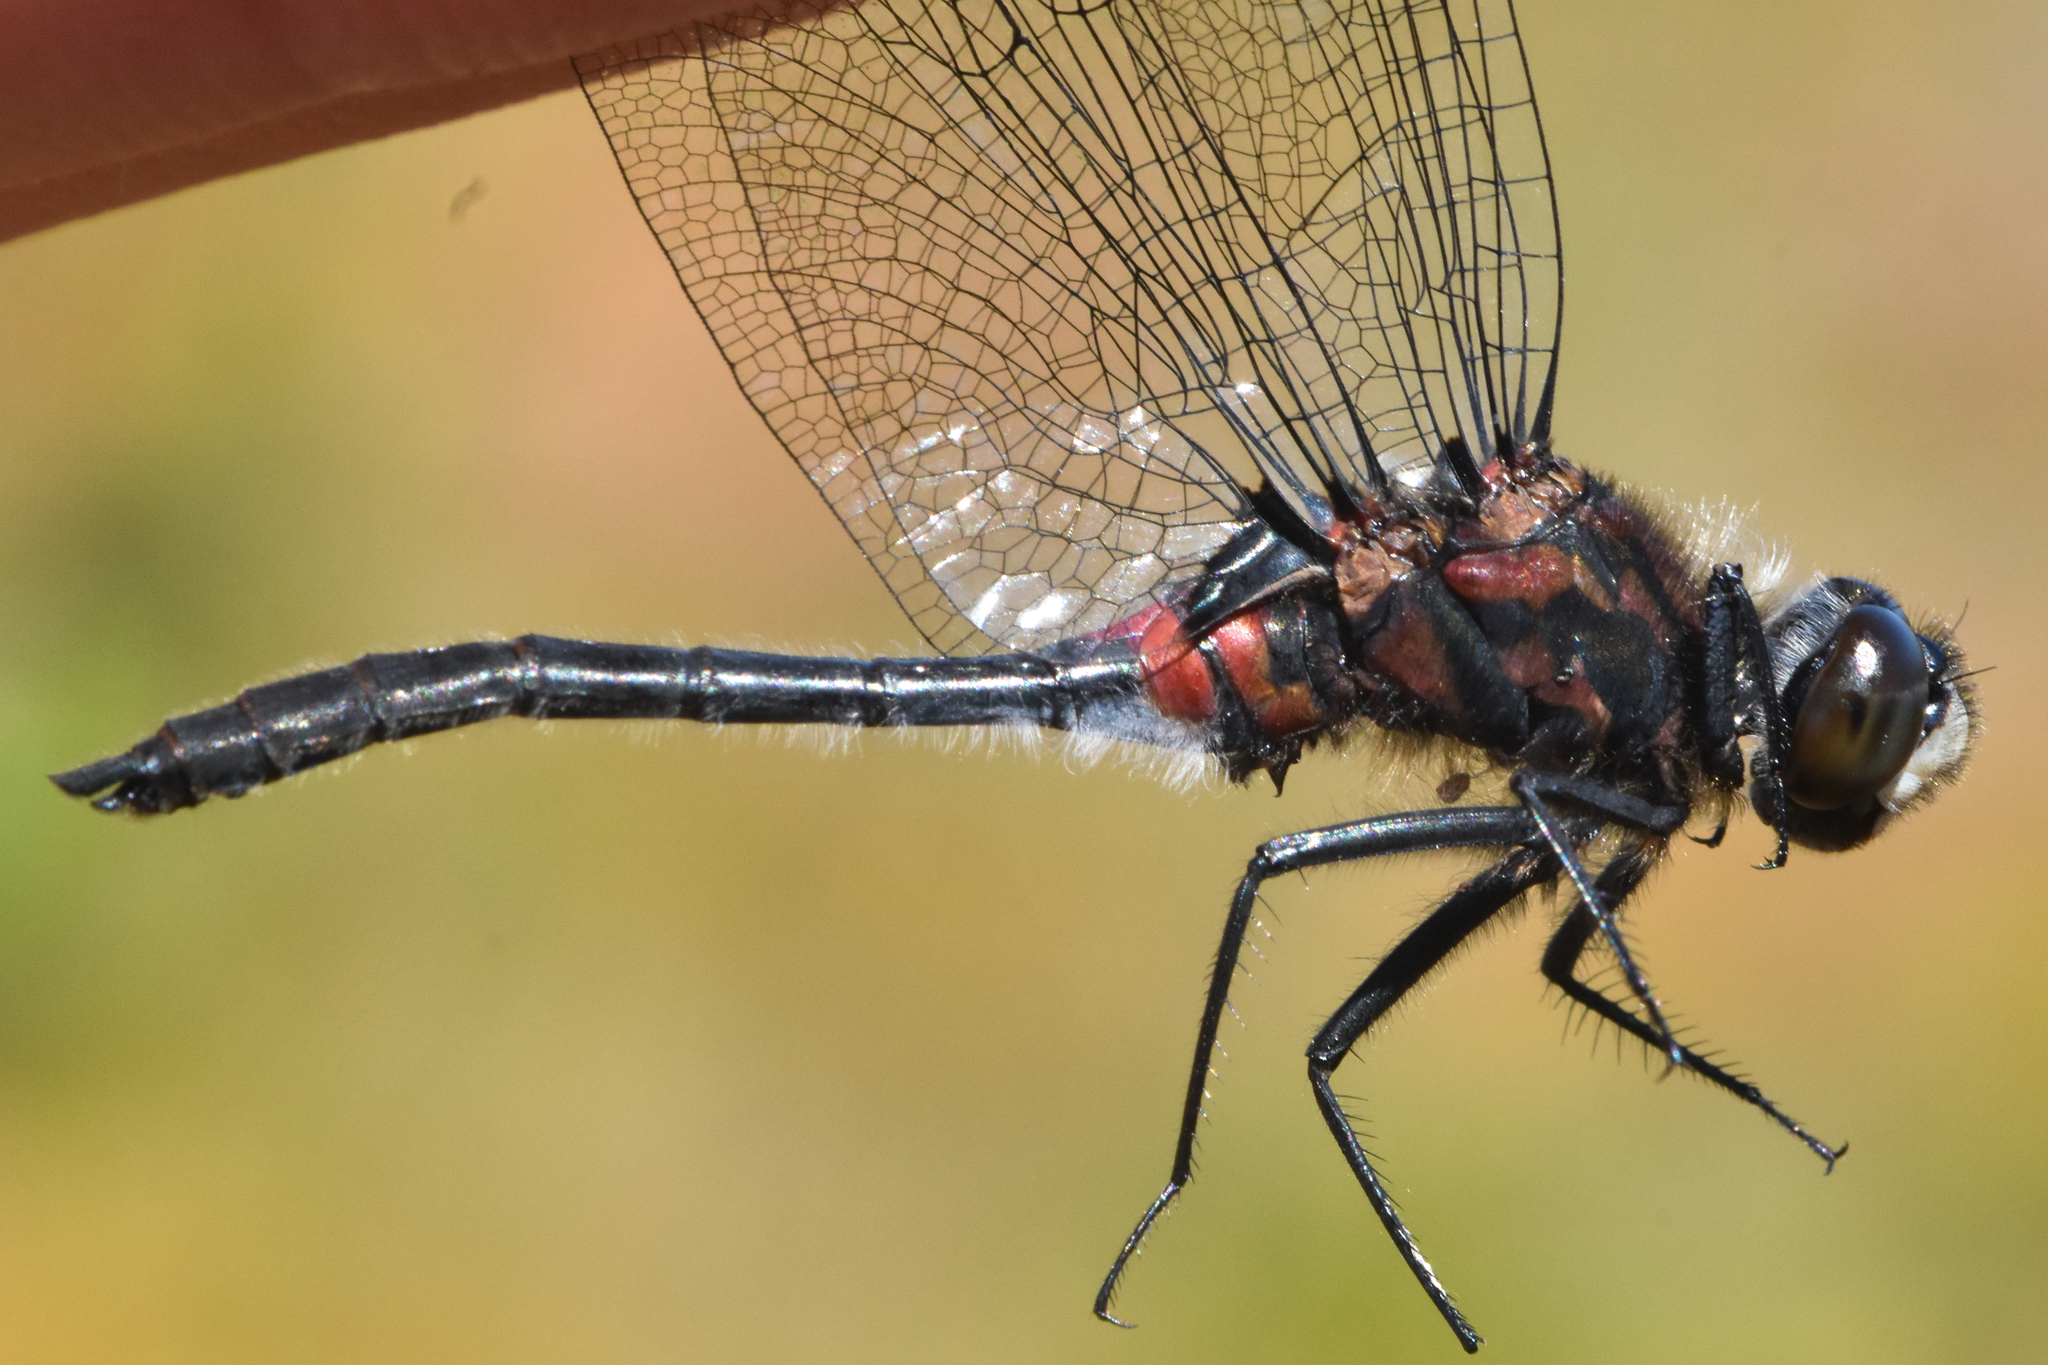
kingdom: Animalia
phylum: Arthropoda
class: Insecta
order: Odonata
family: Libellulidae
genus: Leucorrhinia
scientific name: Leucorrhinia glacialis
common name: Crimson-ringed whiteface
